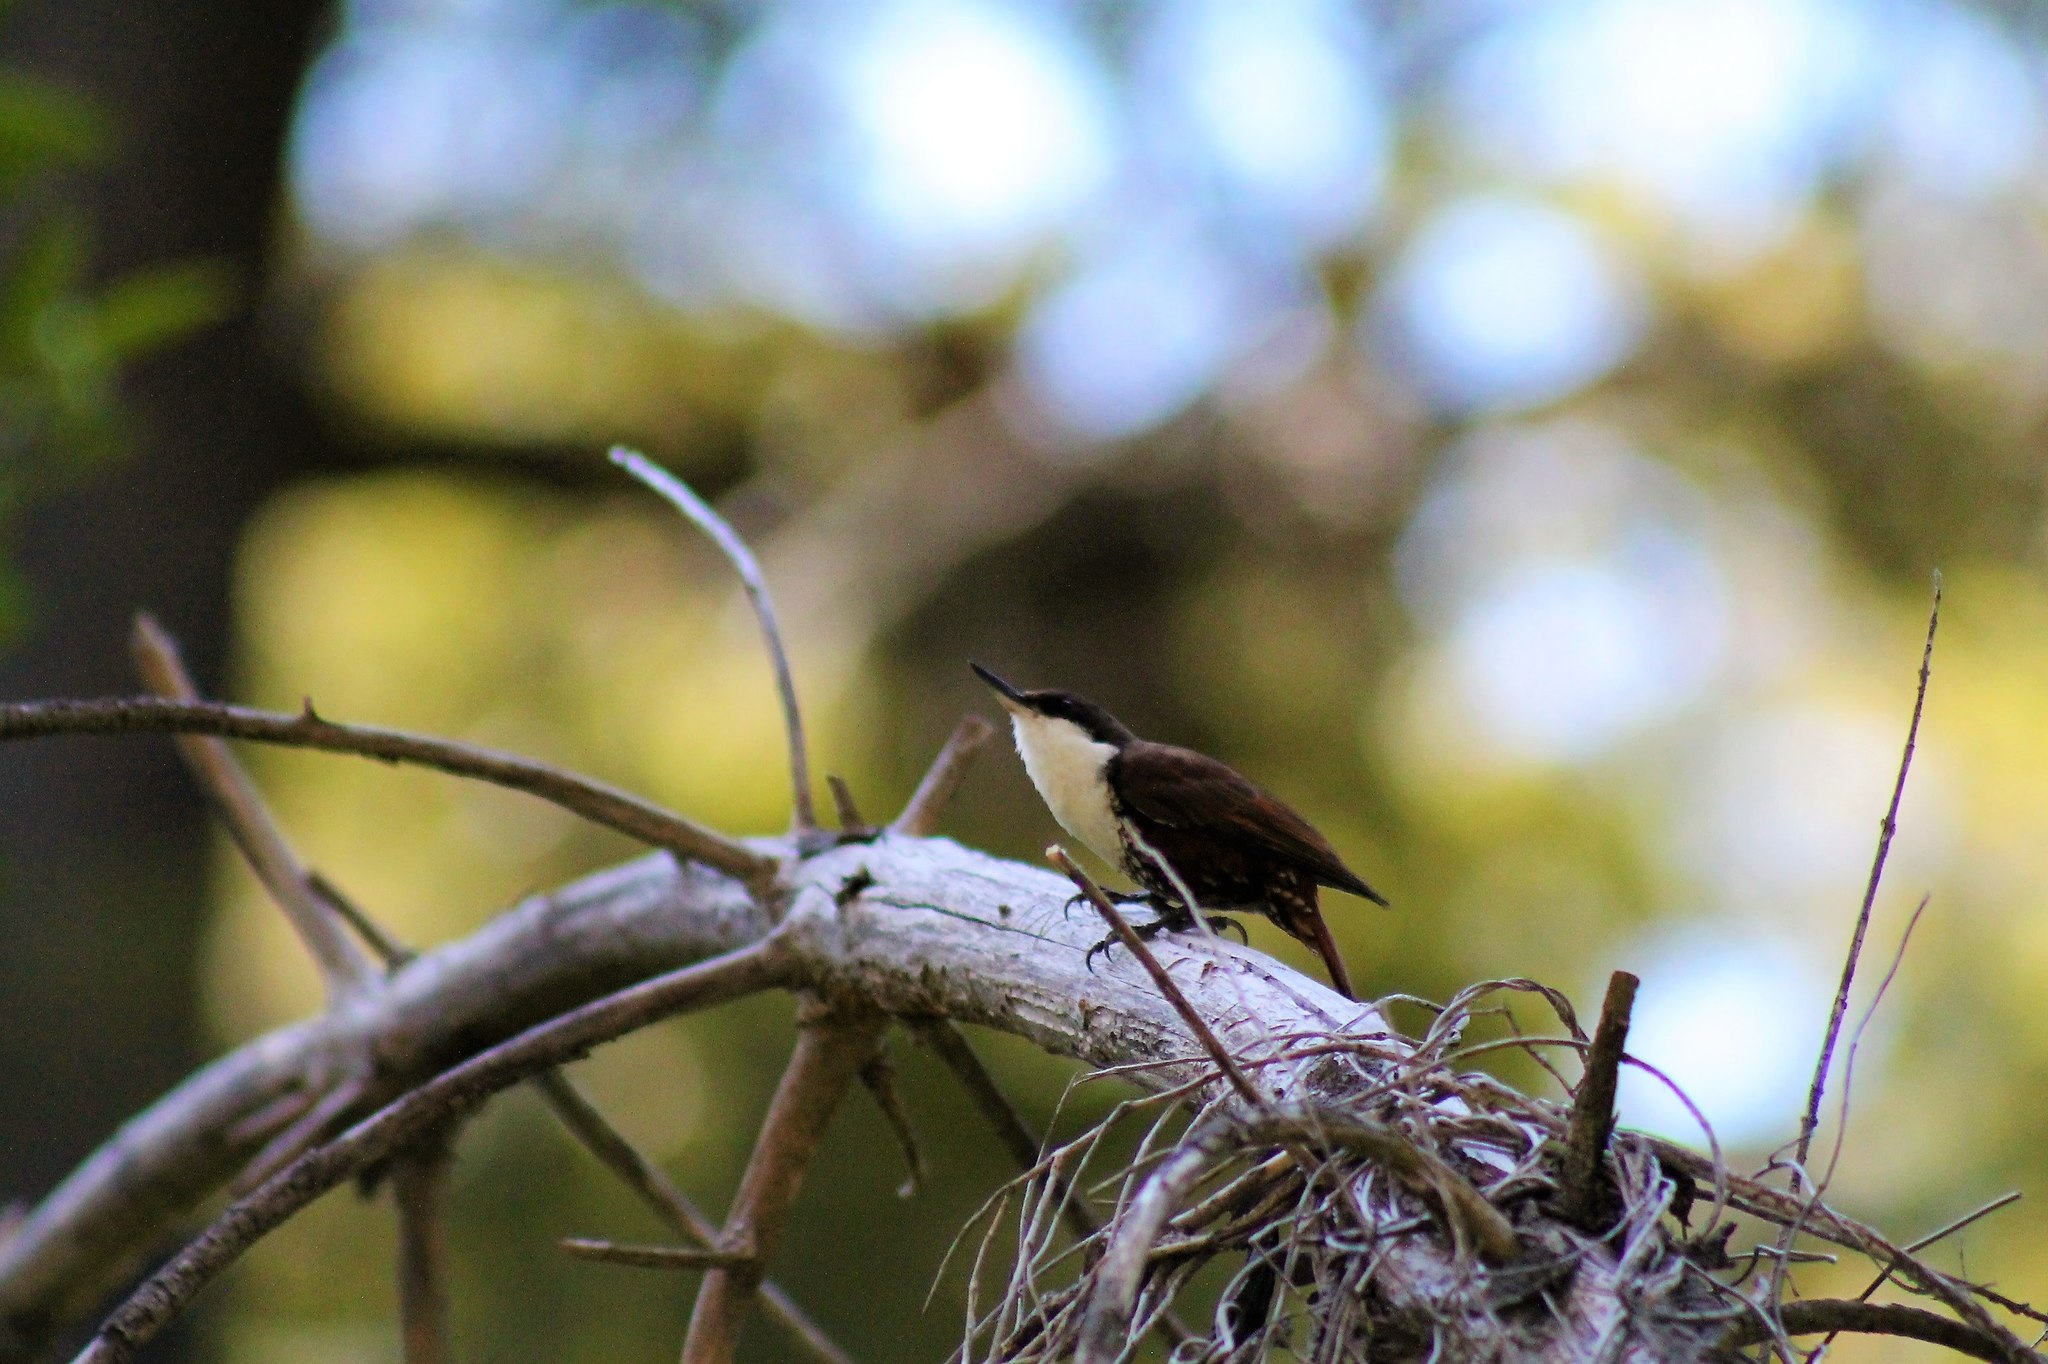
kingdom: Animalia
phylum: Chordata
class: Aves
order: Passeriformes
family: Furnariidae
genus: Pygarrhichas
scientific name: Pygarrhichas albogularis
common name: White-throated treerunner
